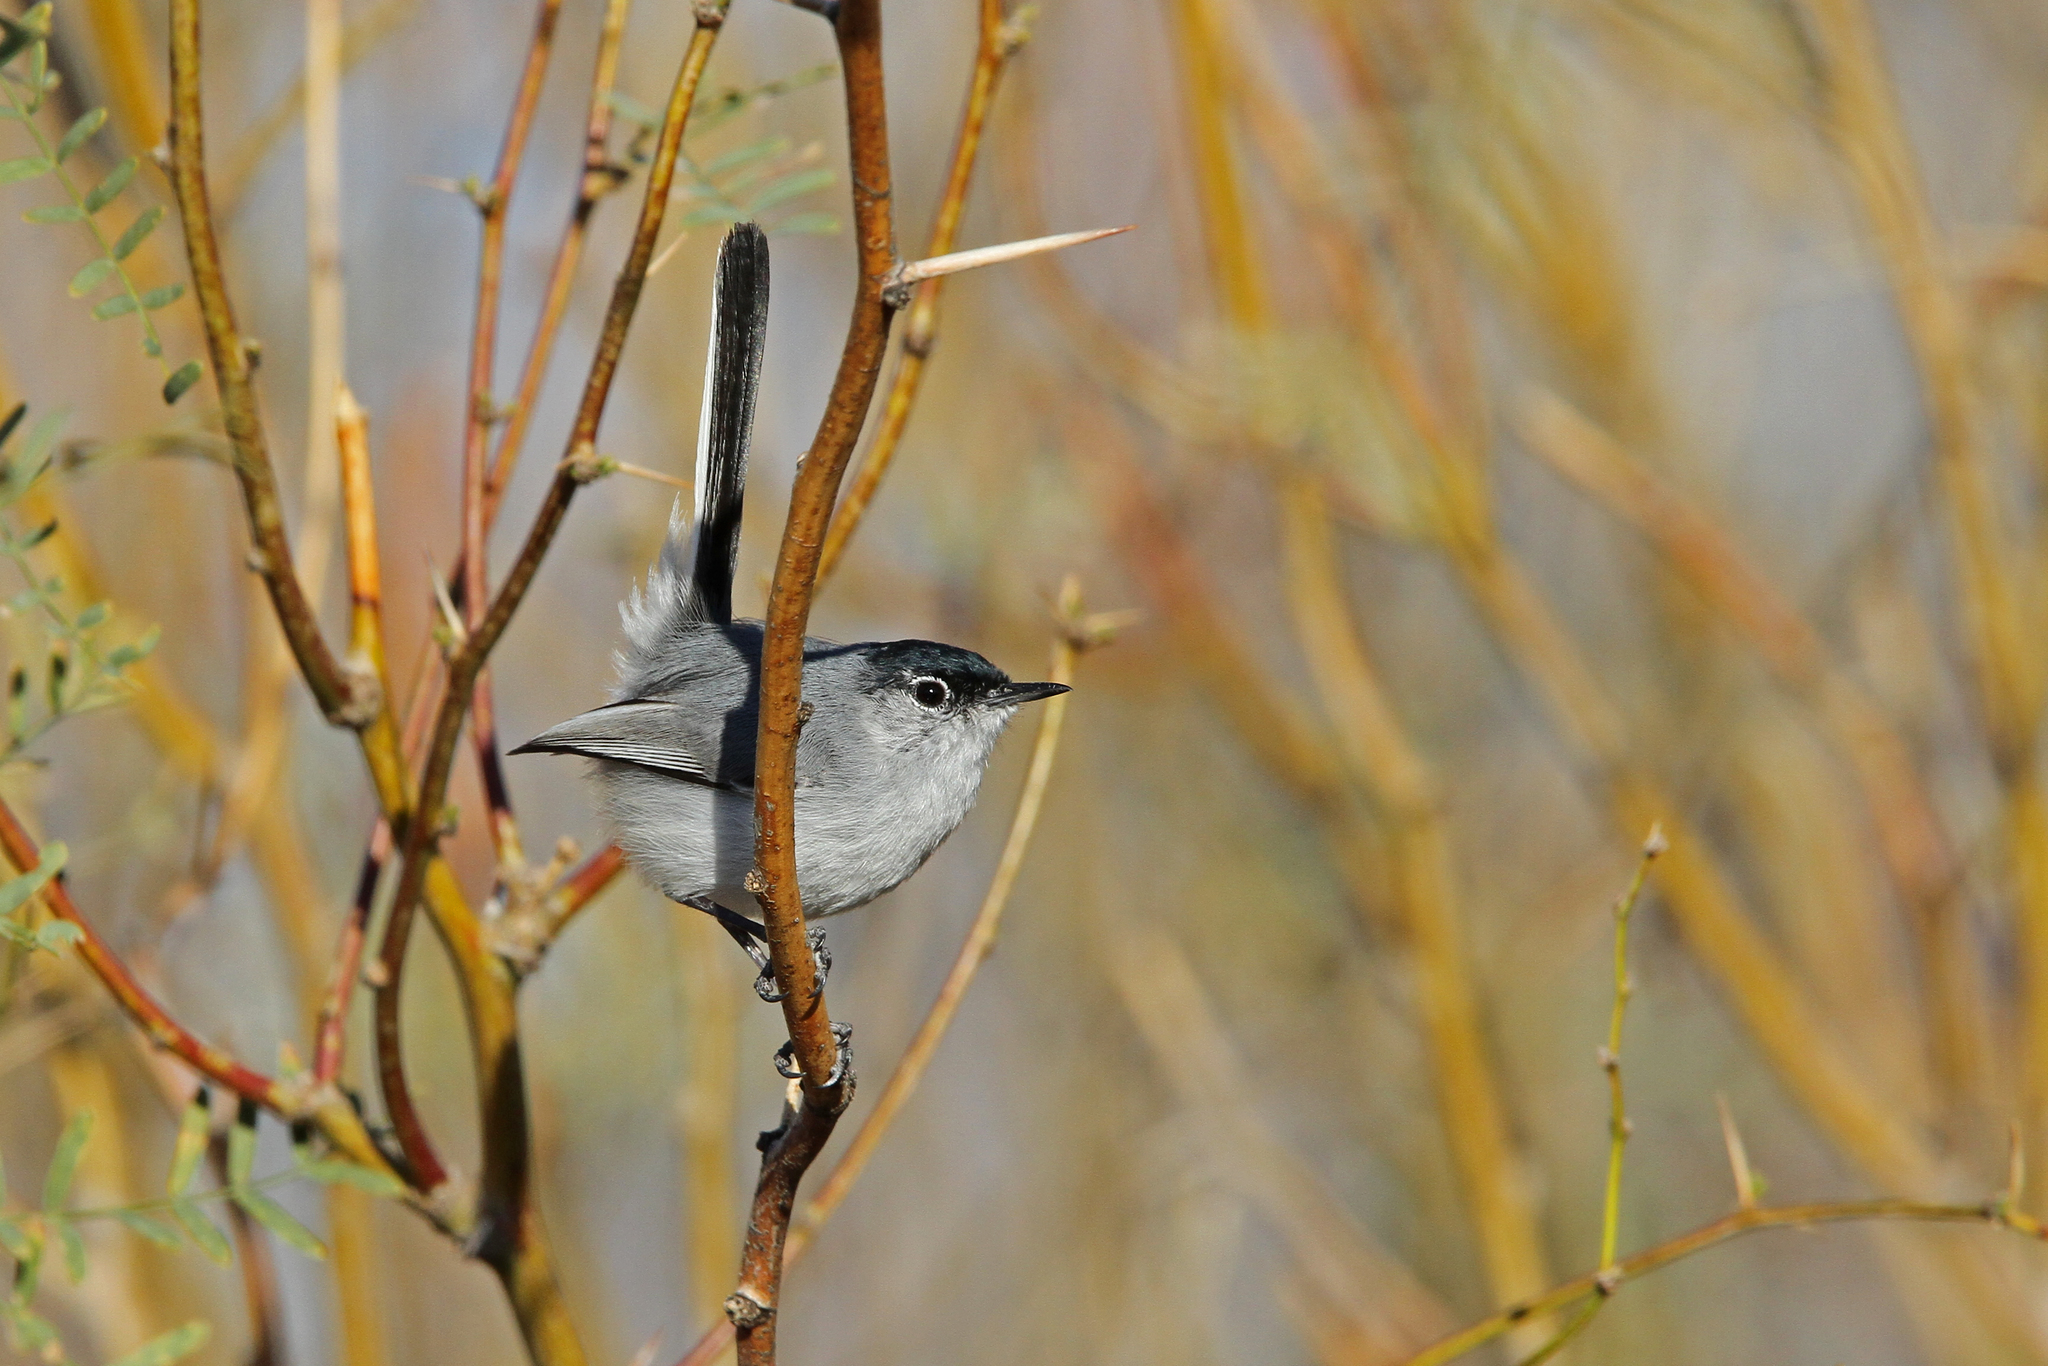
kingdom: Animalia
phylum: Chordata
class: Aves
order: Passeriformes
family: Polioptilidae
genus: Polioptila
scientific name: Polioptila melanura
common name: Black-tailed gnatcatcher
